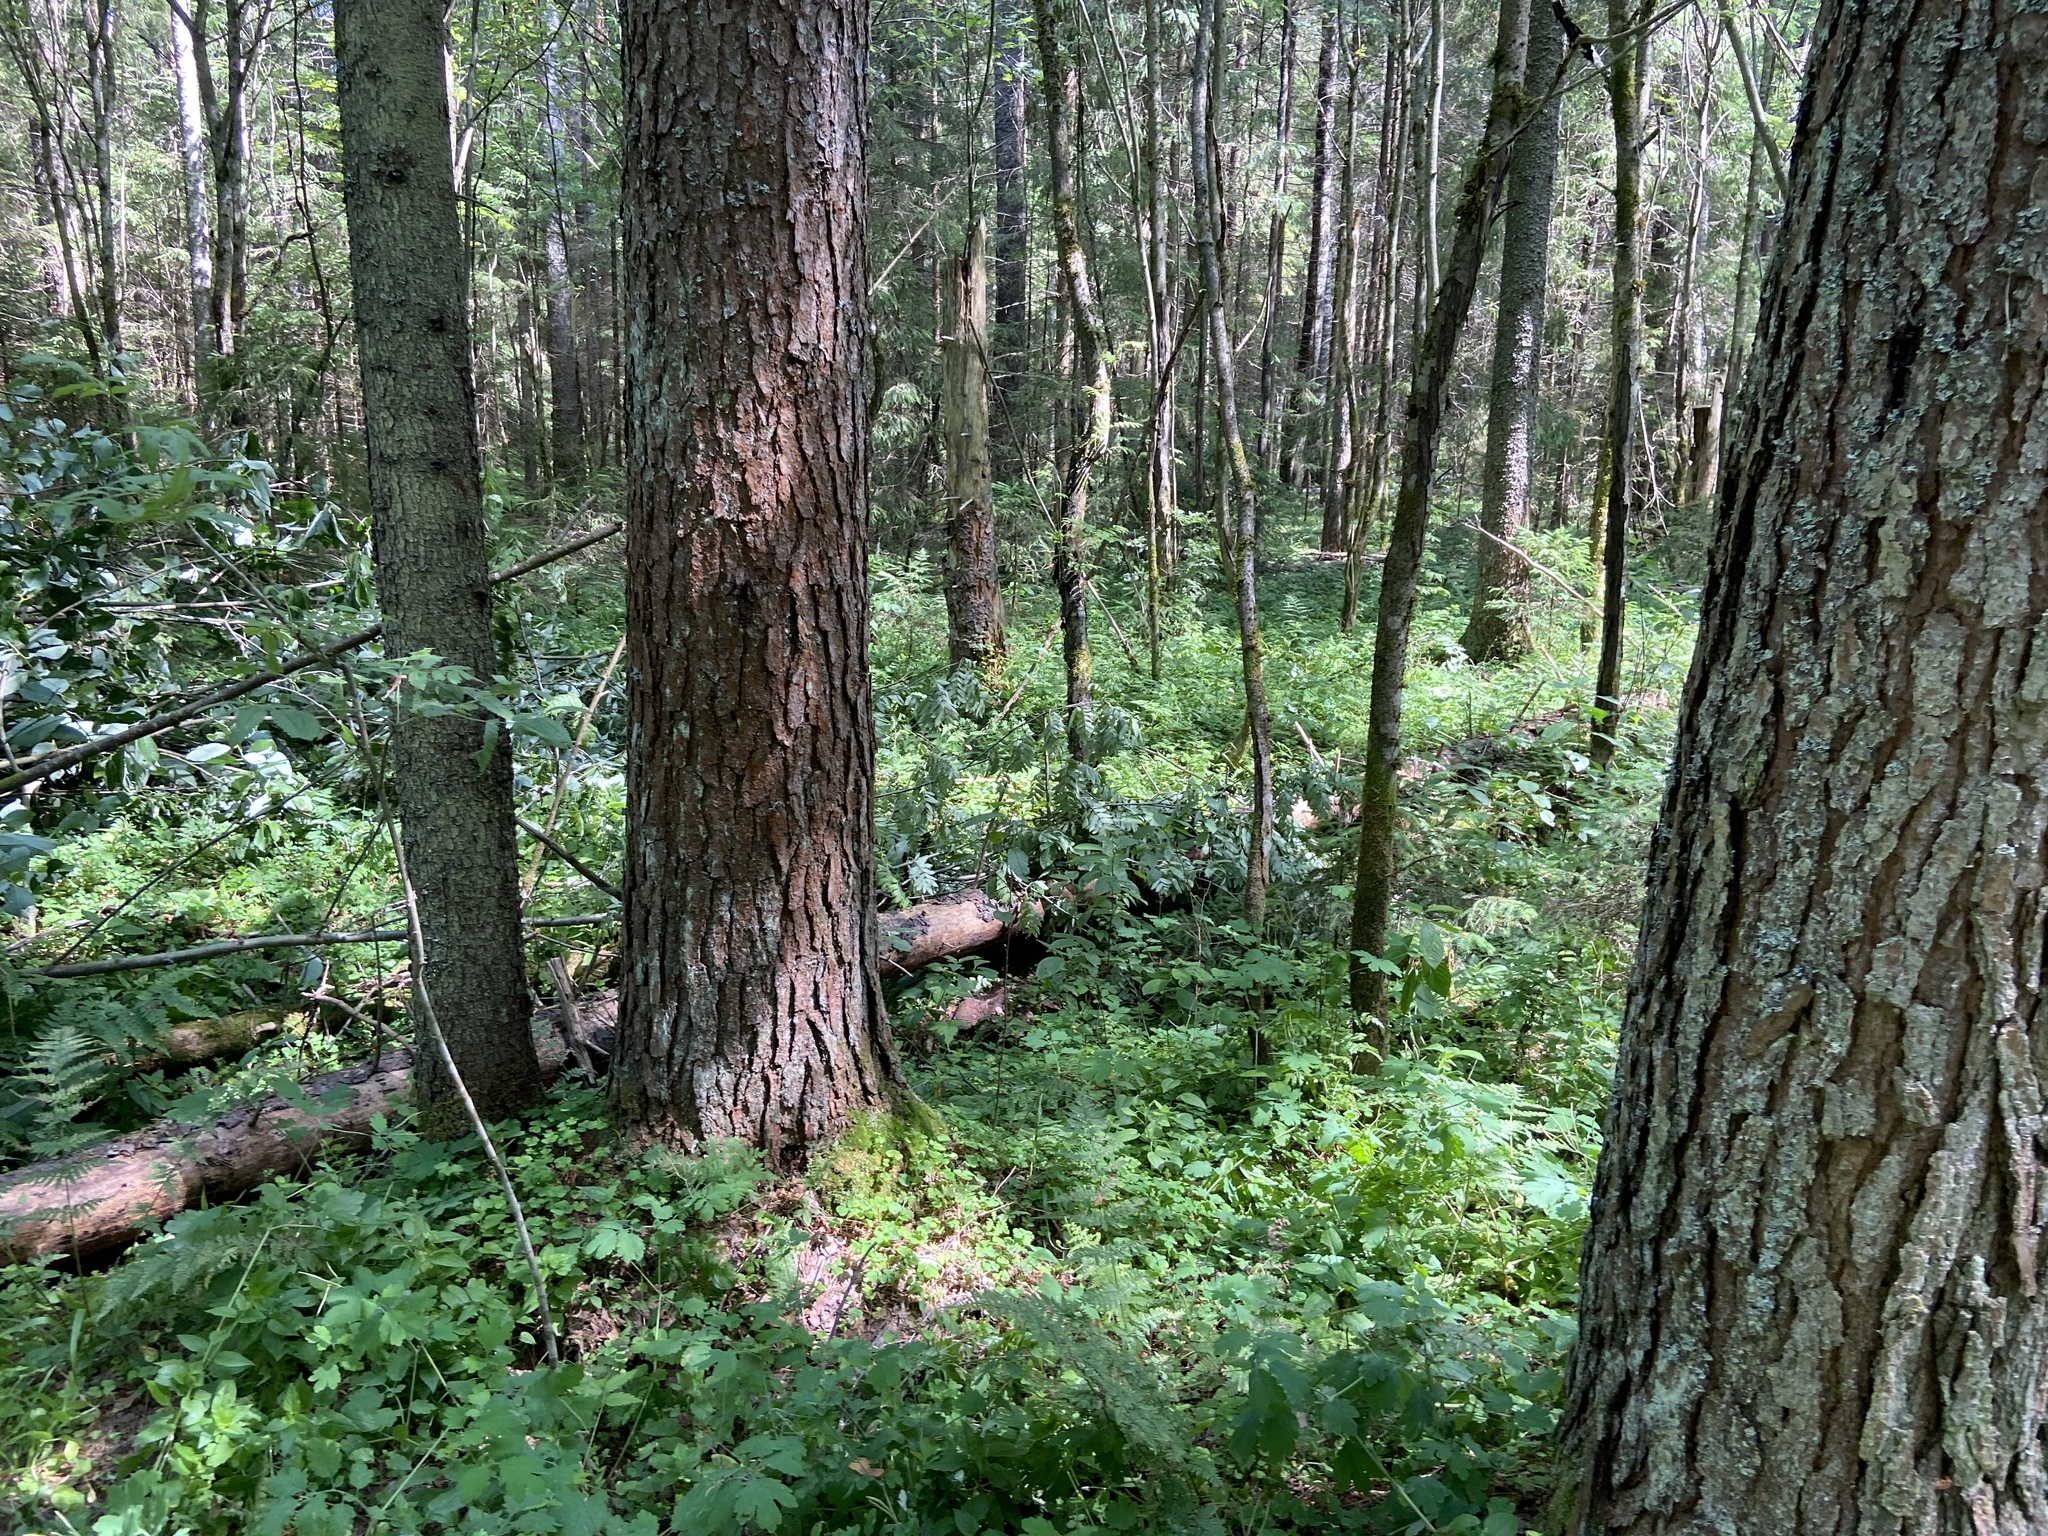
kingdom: Plantae
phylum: Tracheophyta
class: Pinopsida
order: Pinales
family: Pinaceae
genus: Pinus
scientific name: Pinus sylvestris
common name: Scots pine
